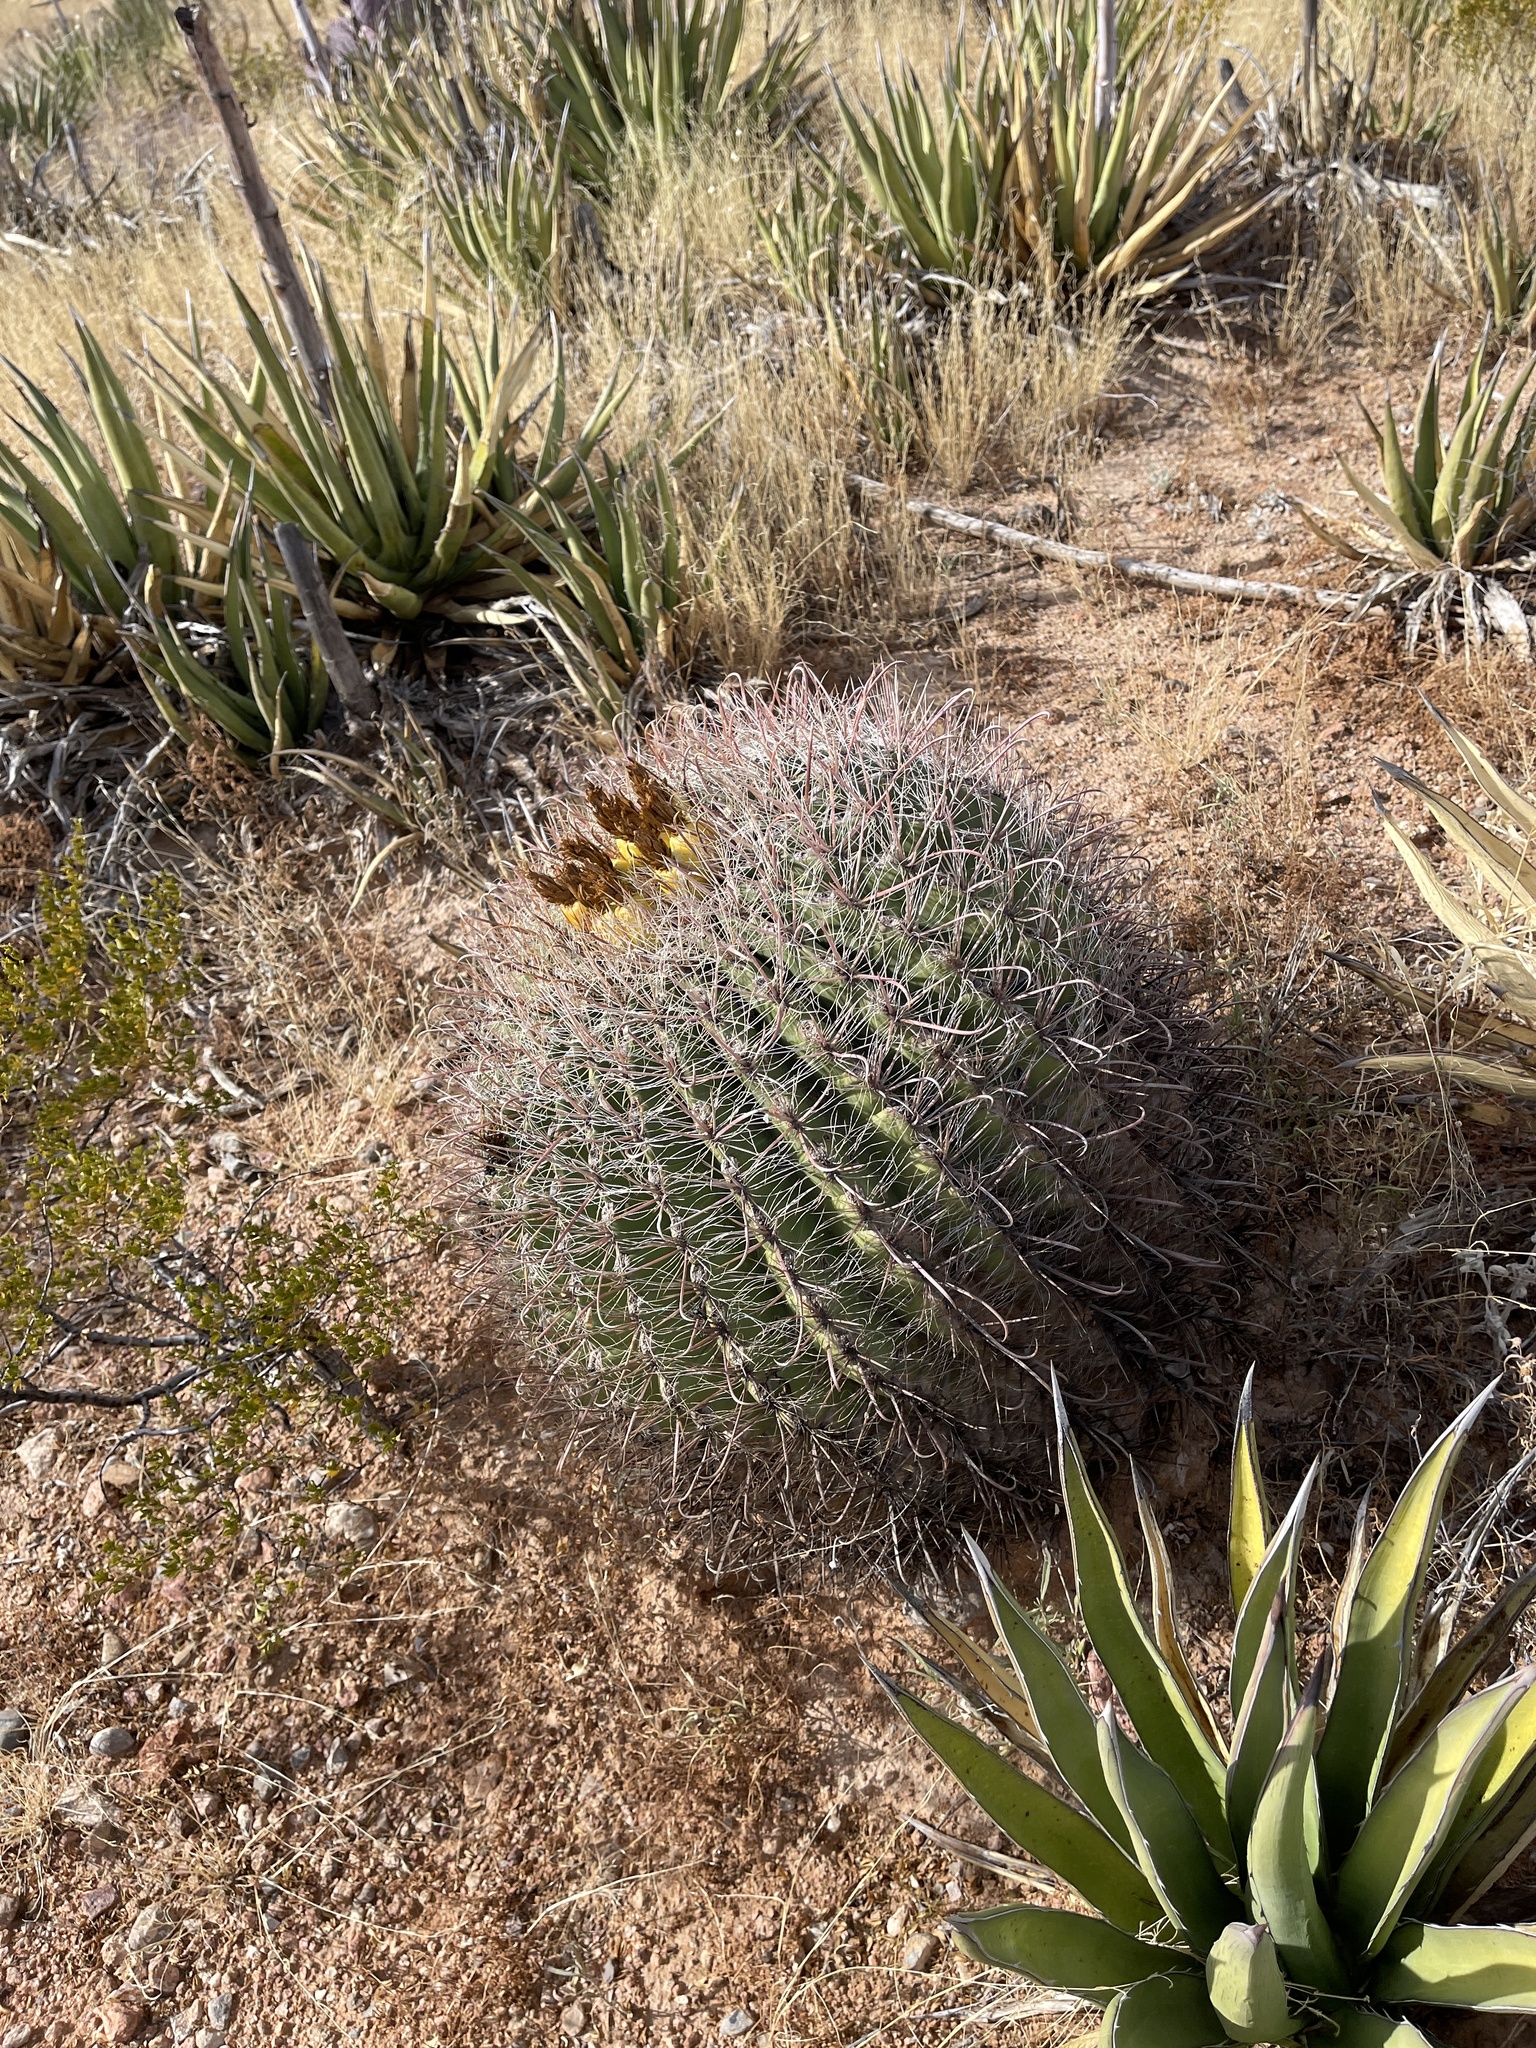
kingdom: Plantae
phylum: Tracheophyta
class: Magnoliopsida
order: Caryophyllales
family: Cactaceae
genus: Ferocactus
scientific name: Ferocactus wislizeni
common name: Candy barrel cactus
